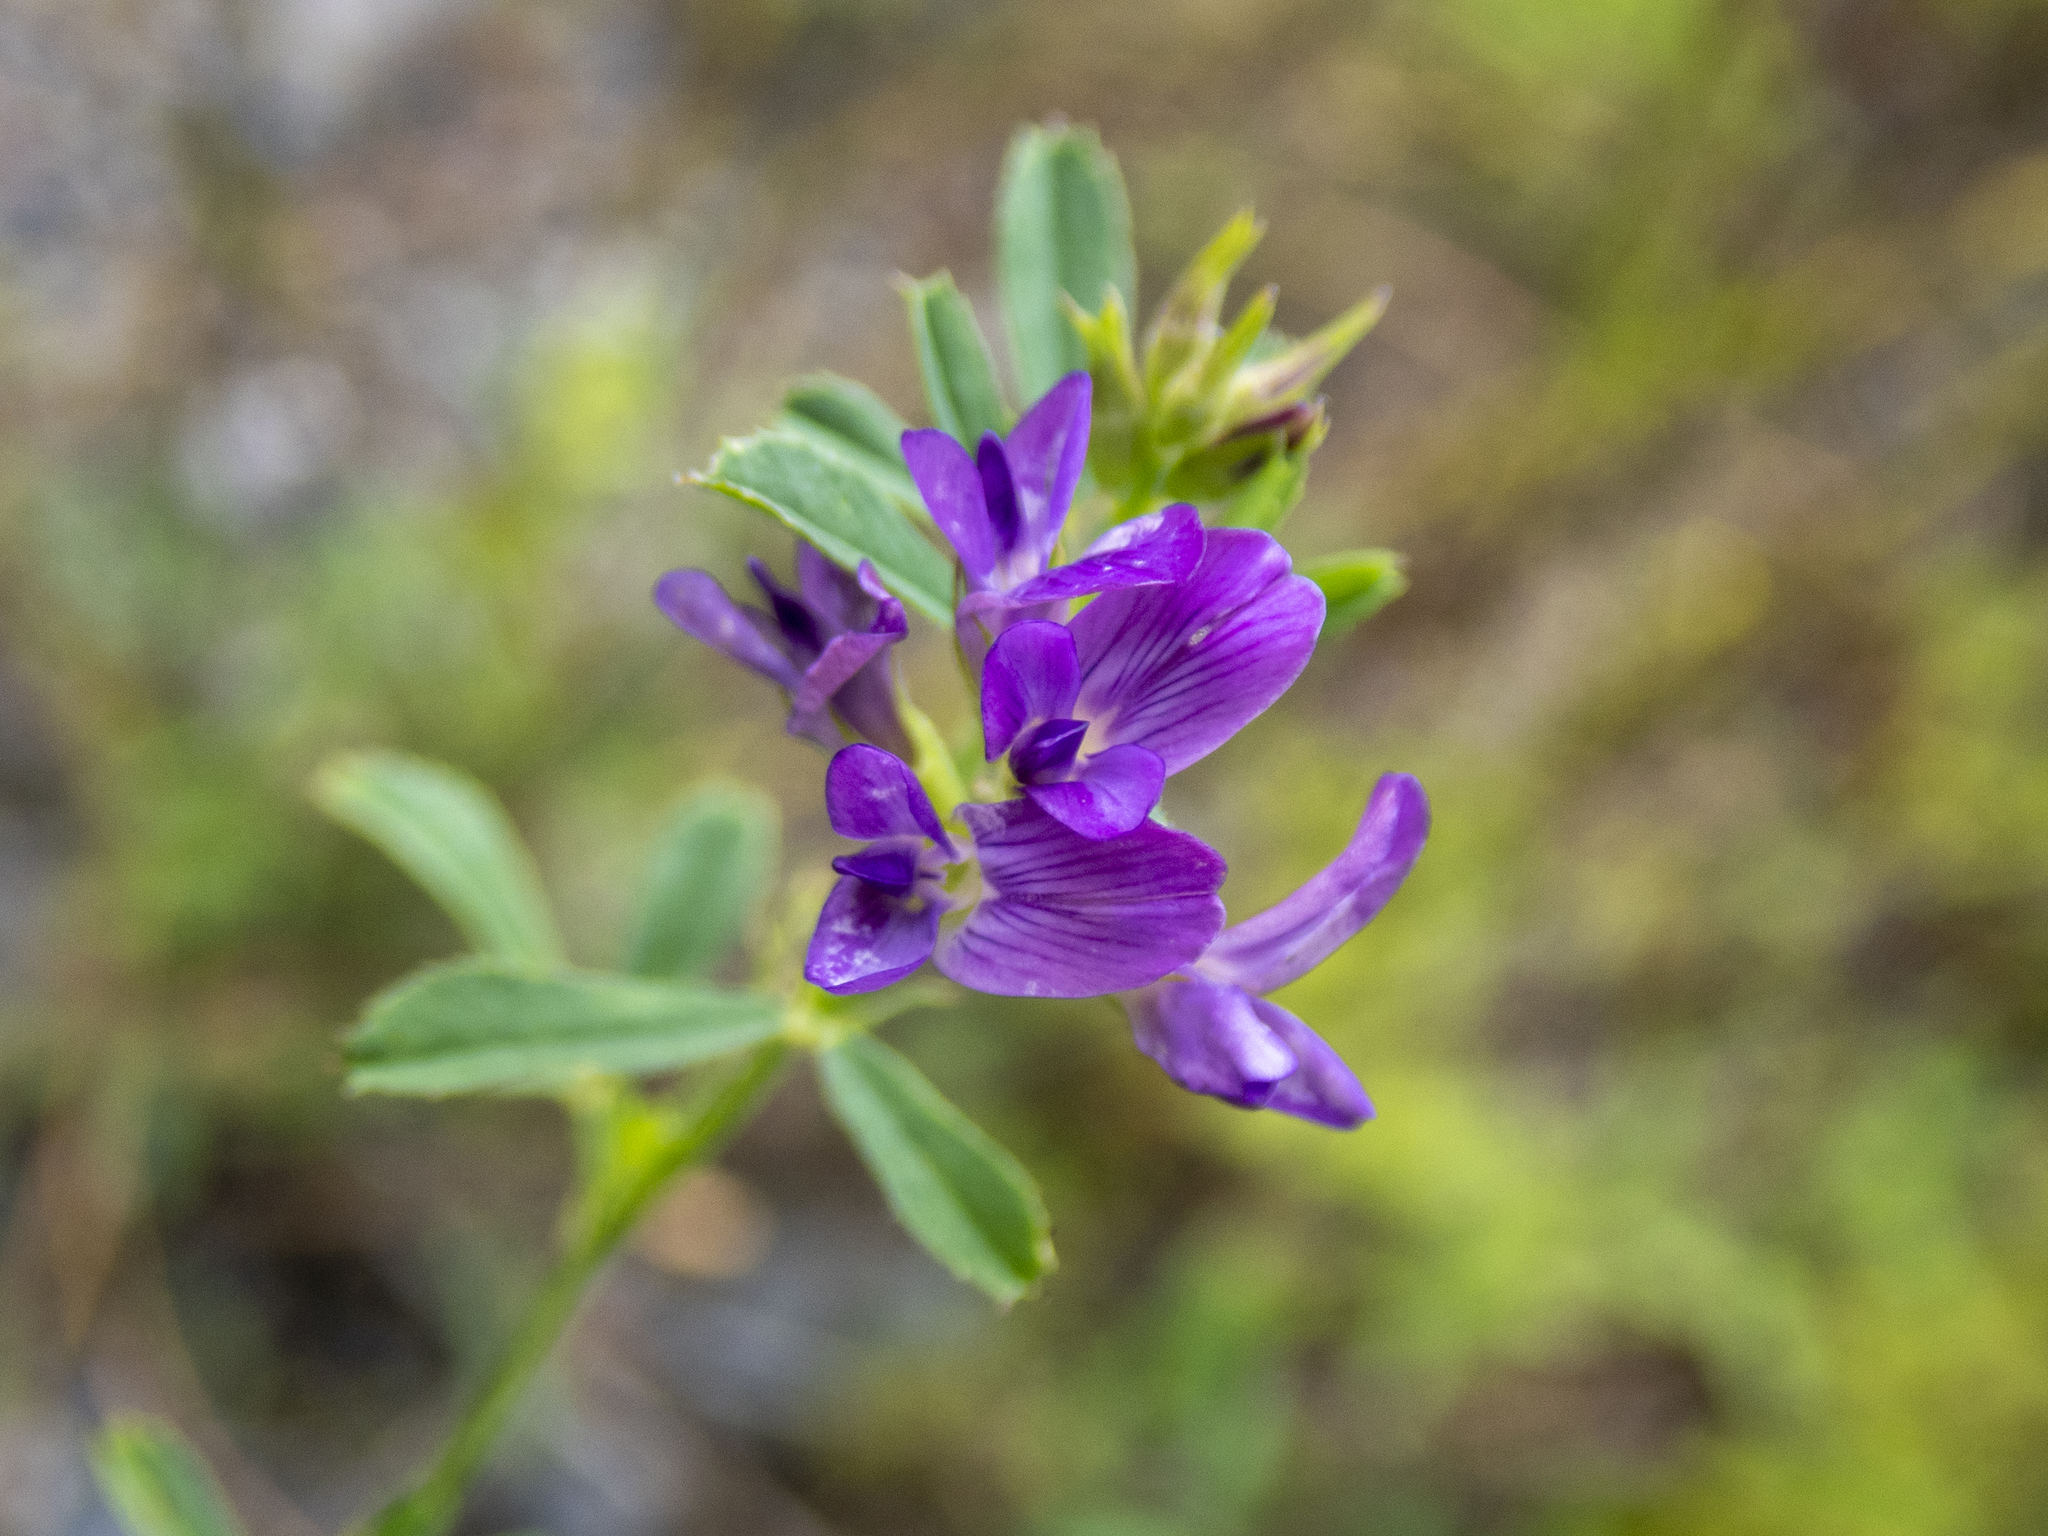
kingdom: Plantae
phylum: Tracheophyta
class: Magnoliopsida
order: Fabales
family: Fabaceae
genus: Medicago
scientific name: Medicago sativa
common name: Alfalfa
